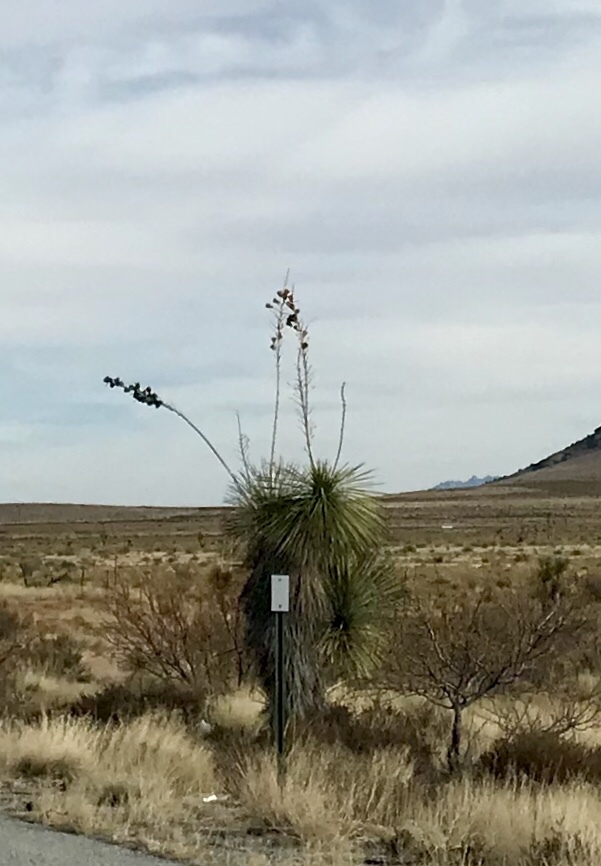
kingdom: Plantae
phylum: Tracheophyta
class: Liliopsida
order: Asparagales
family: Asparagaceae
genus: Yucca
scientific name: Yucca elata
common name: Palmella
